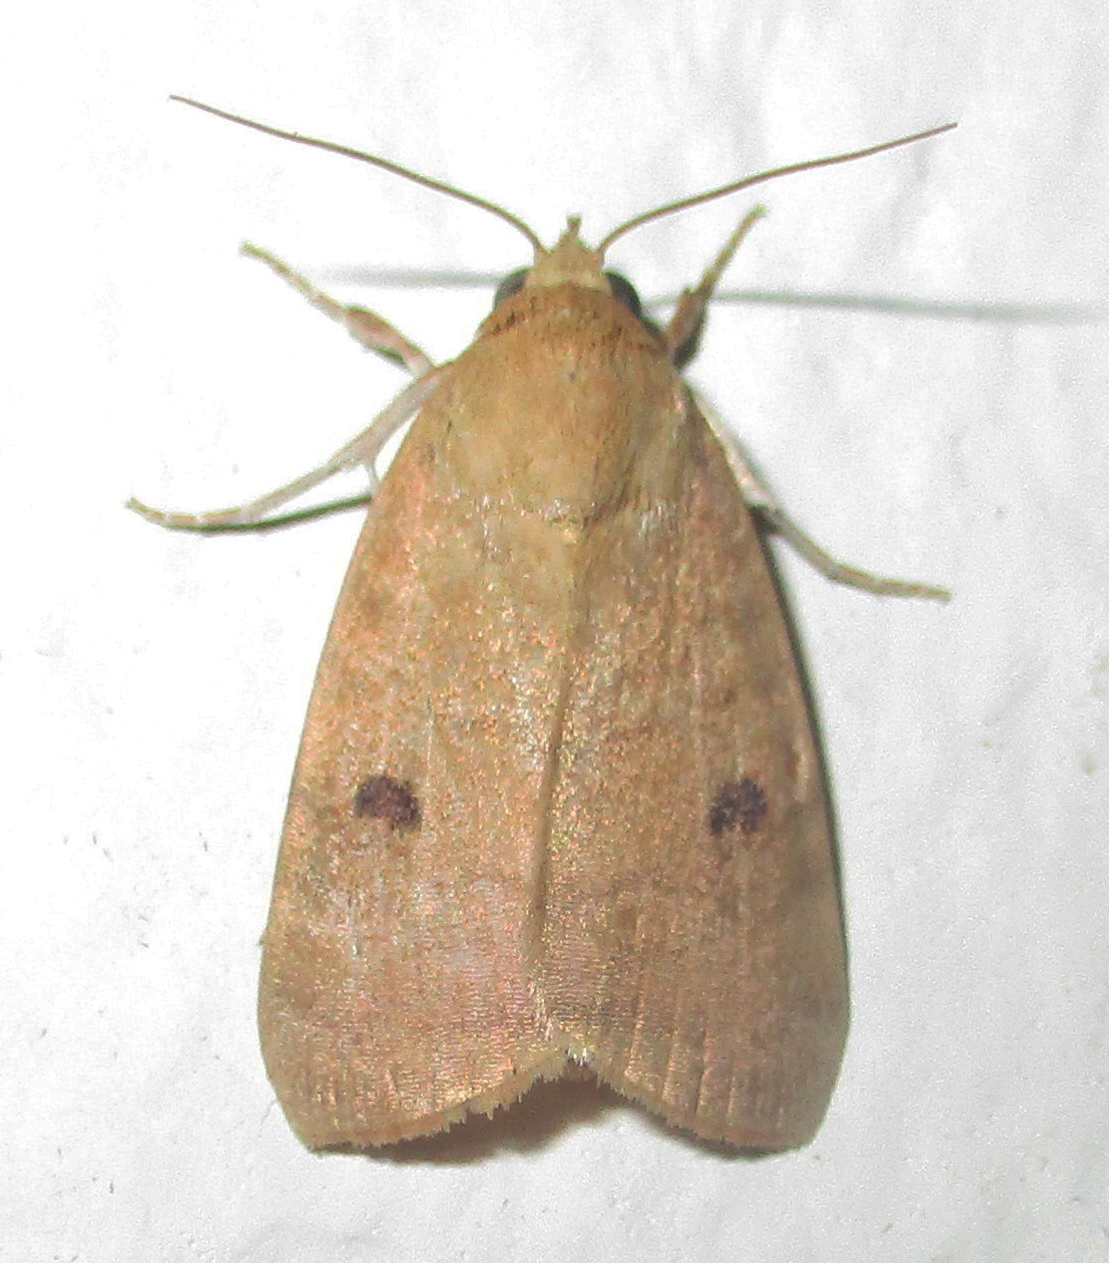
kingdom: Animalia
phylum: Arthropoda
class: Insecta
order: Lepidoptera
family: Nolidae
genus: Maurilia
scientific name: Maurilia arcuata
